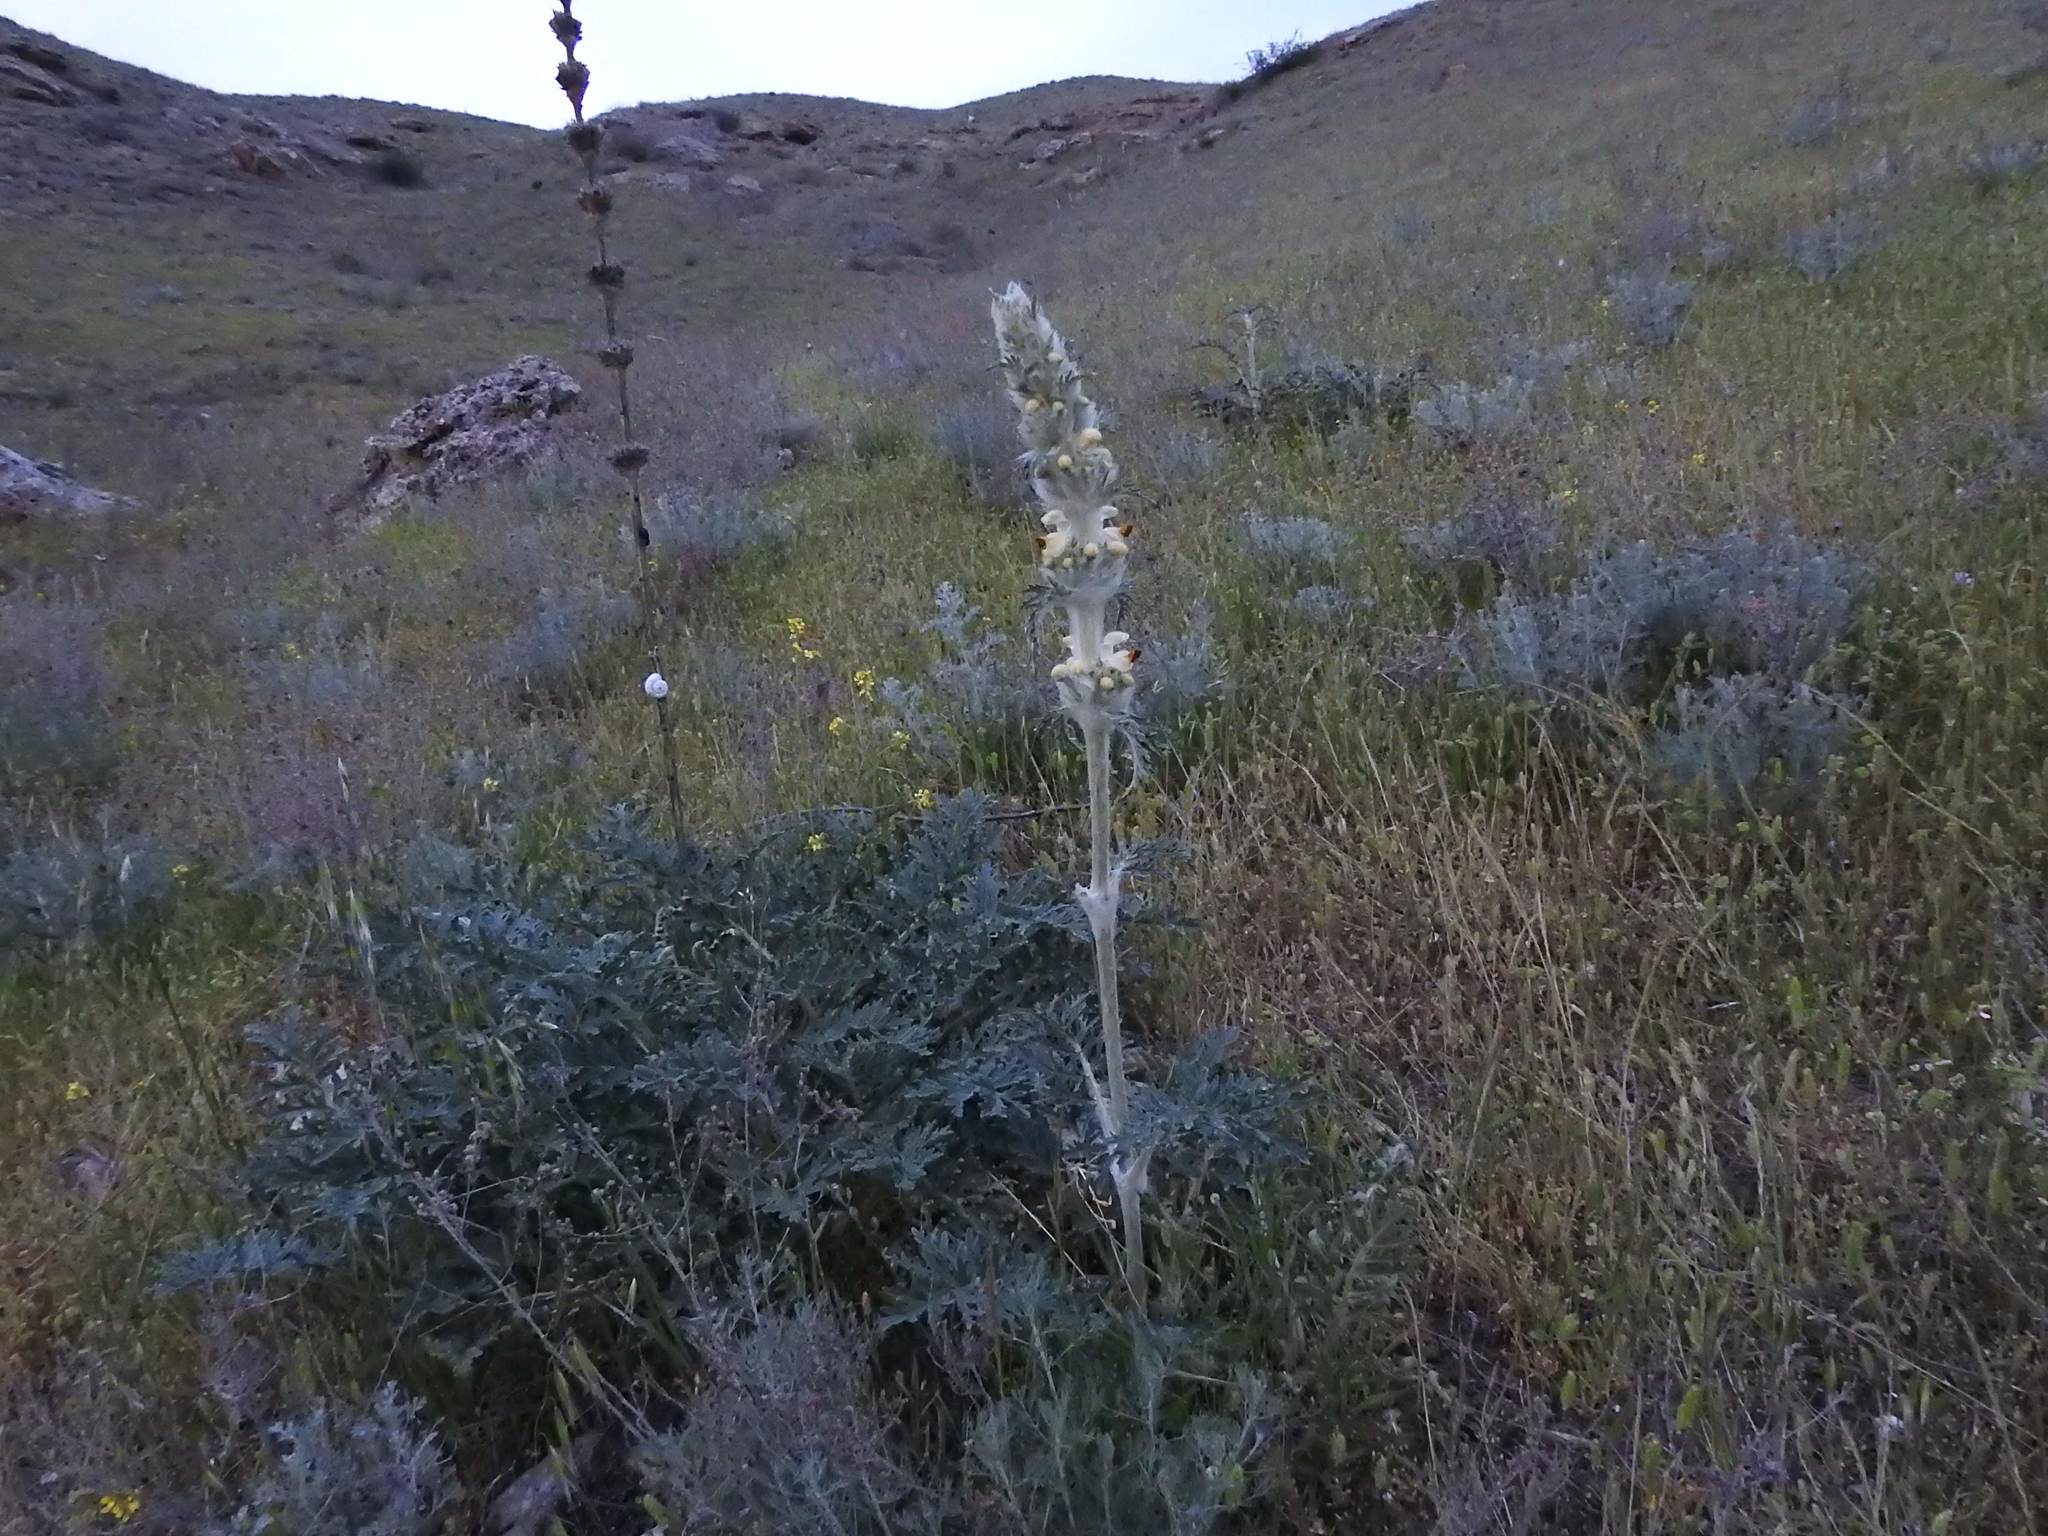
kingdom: Plantae
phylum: Tracheophyta
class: Magnoliopsida
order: Lamiales
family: Lamiaceae
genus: Phlomoides
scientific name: Phlomoides laciniata
